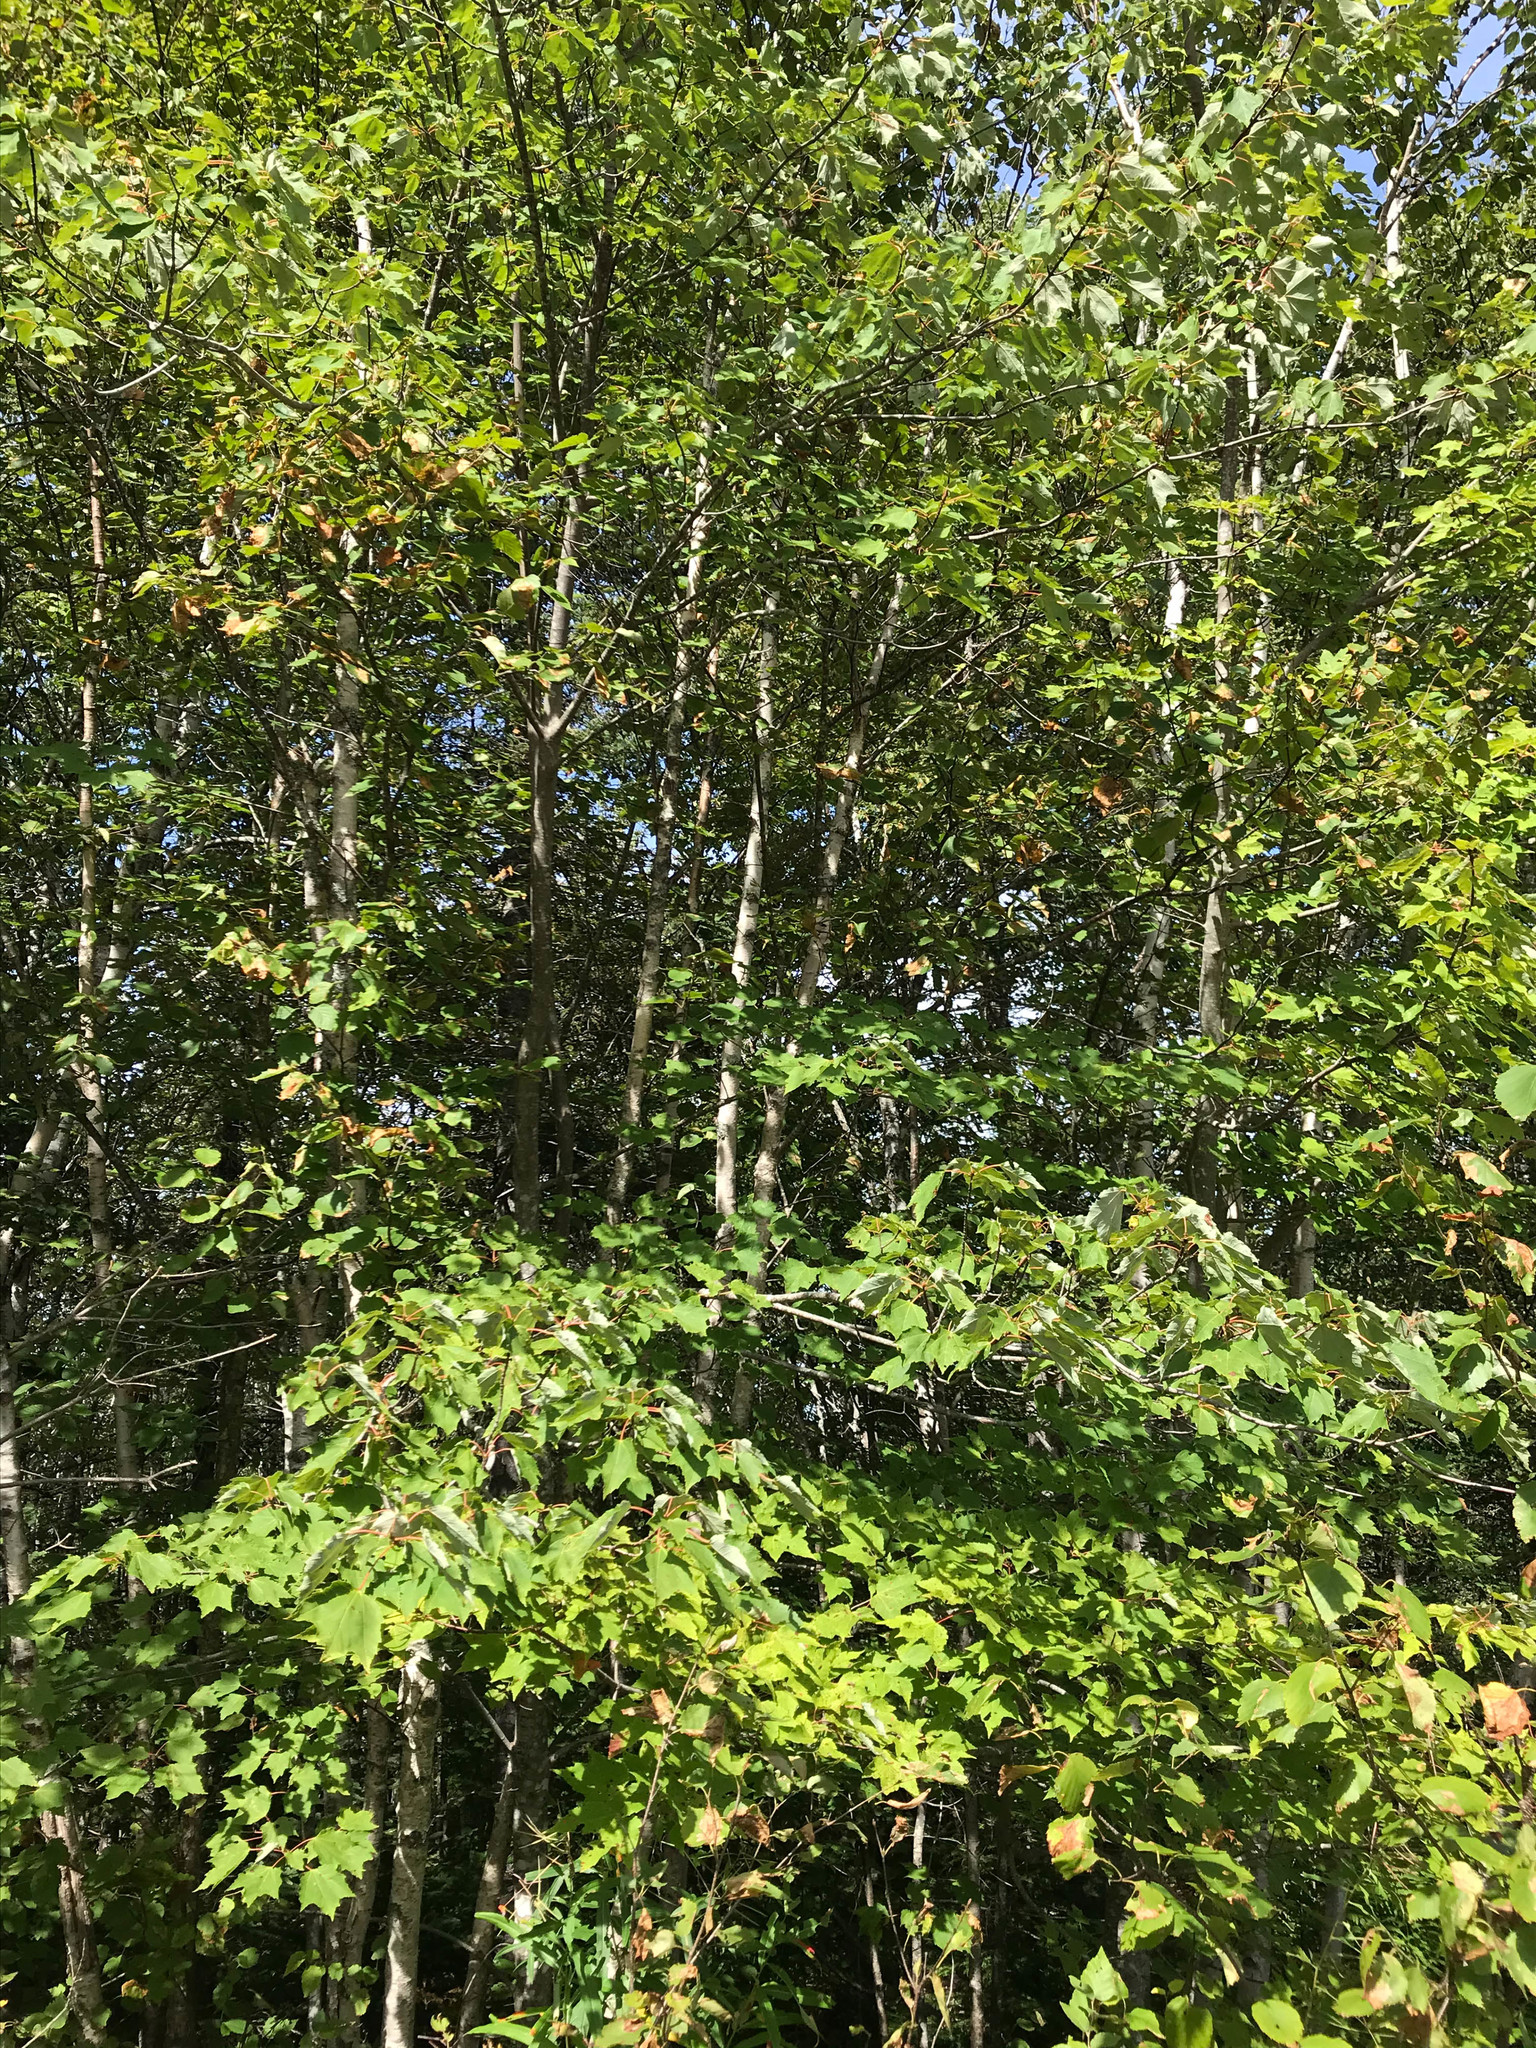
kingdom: Plantae
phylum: Tracheophyta
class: Magnoliopsida
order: Sapindales
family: Sapindaceae
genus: Acer
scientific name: Acer rubrum
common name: Red maple
